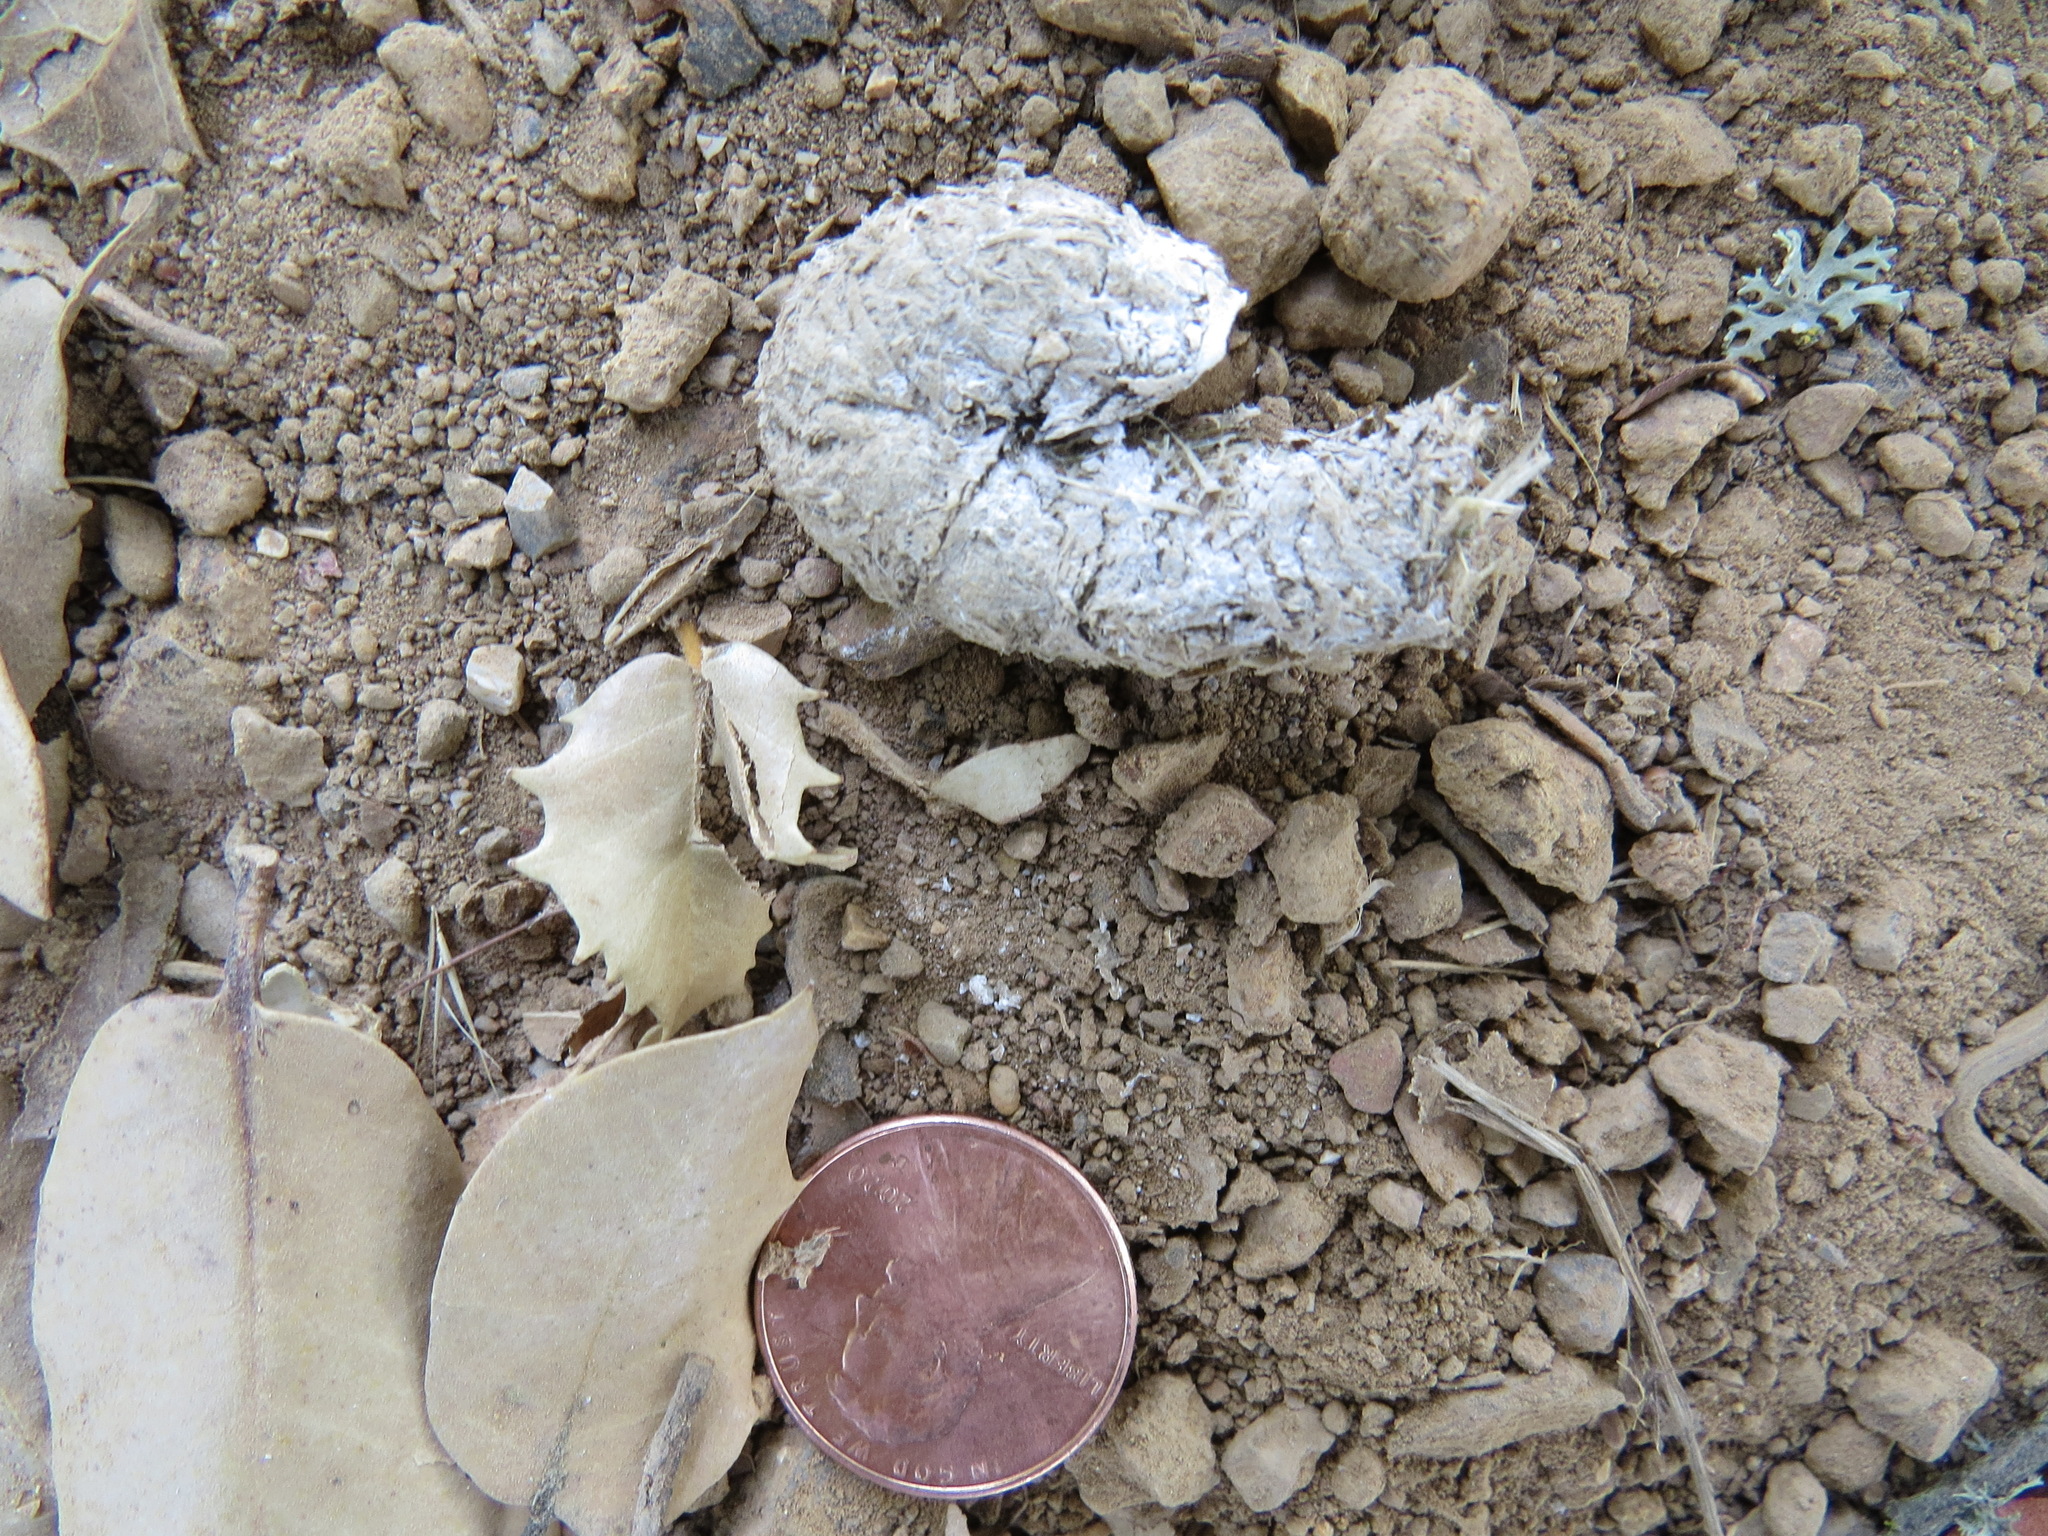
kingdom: Animalia
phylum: Chordata
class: Aves
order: Galliformes
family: Phasianidae
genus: Meleagris
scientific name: Meleagris gallopavo
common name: Wild turkey
